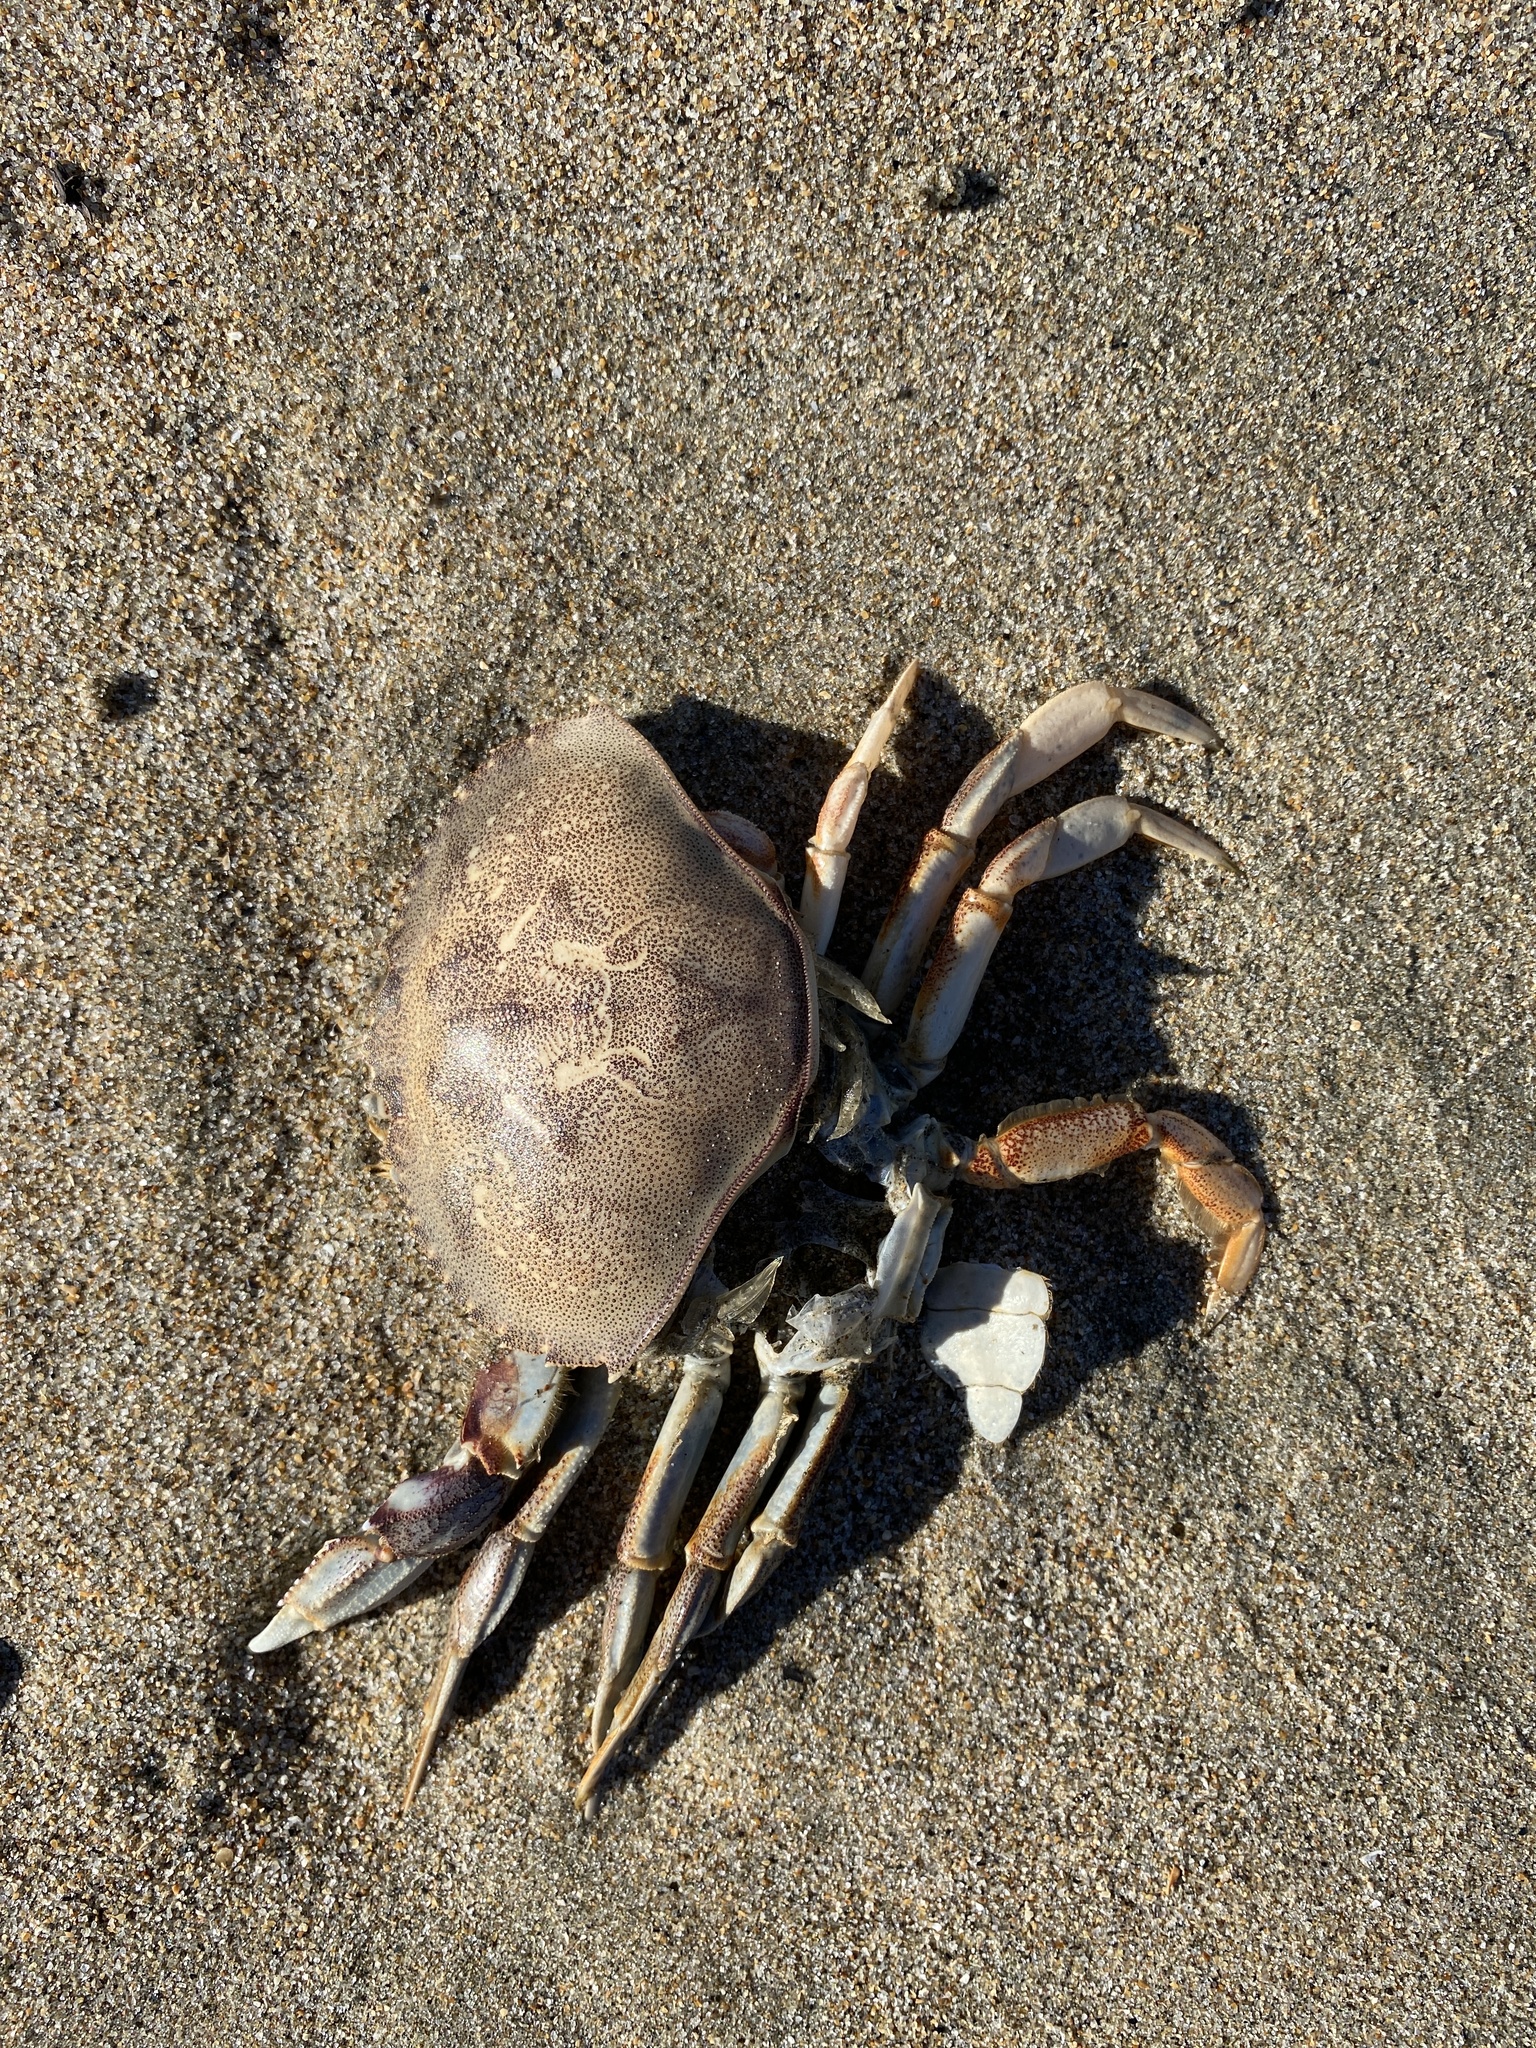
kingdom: Animalia
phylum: Arthropoda
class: Malacostraca
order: Decapoda
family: Cancridae
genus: Metacarcinus
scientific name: Metacarcinus magister
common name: Californian crab
